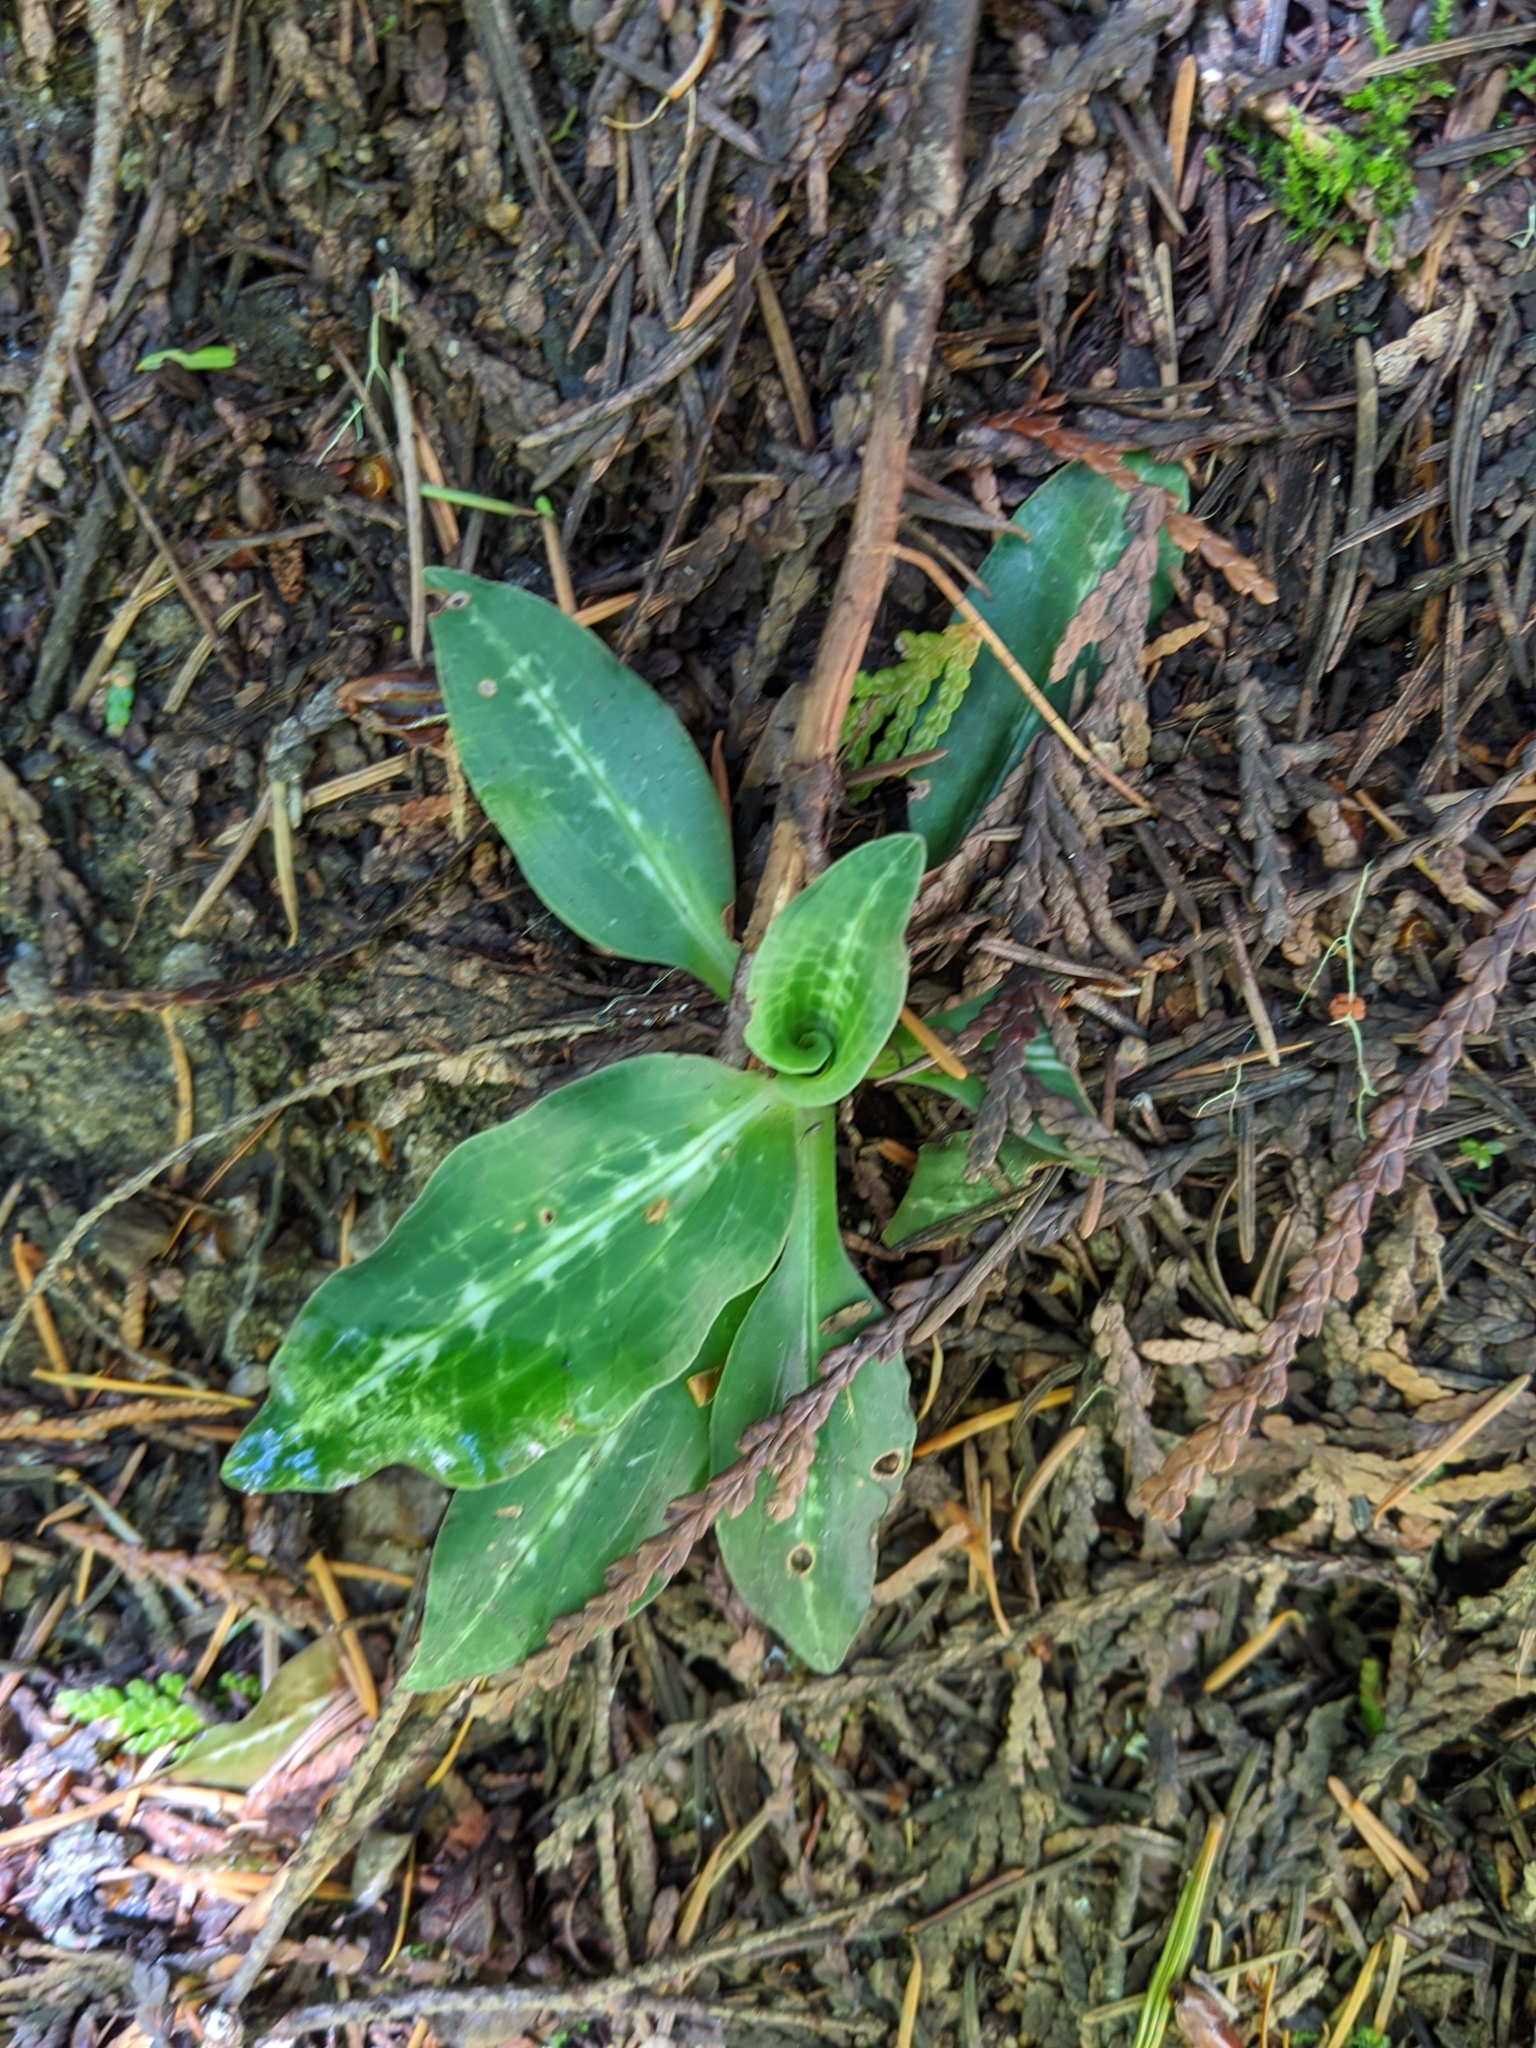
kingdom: Plantae
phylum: Tracheophyta
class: Liliopsida
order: Asparagales
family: Orchidaceae
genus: Goodyera
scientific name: Goodyera oblongifolia
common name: Giant rattlesnake-plantain
